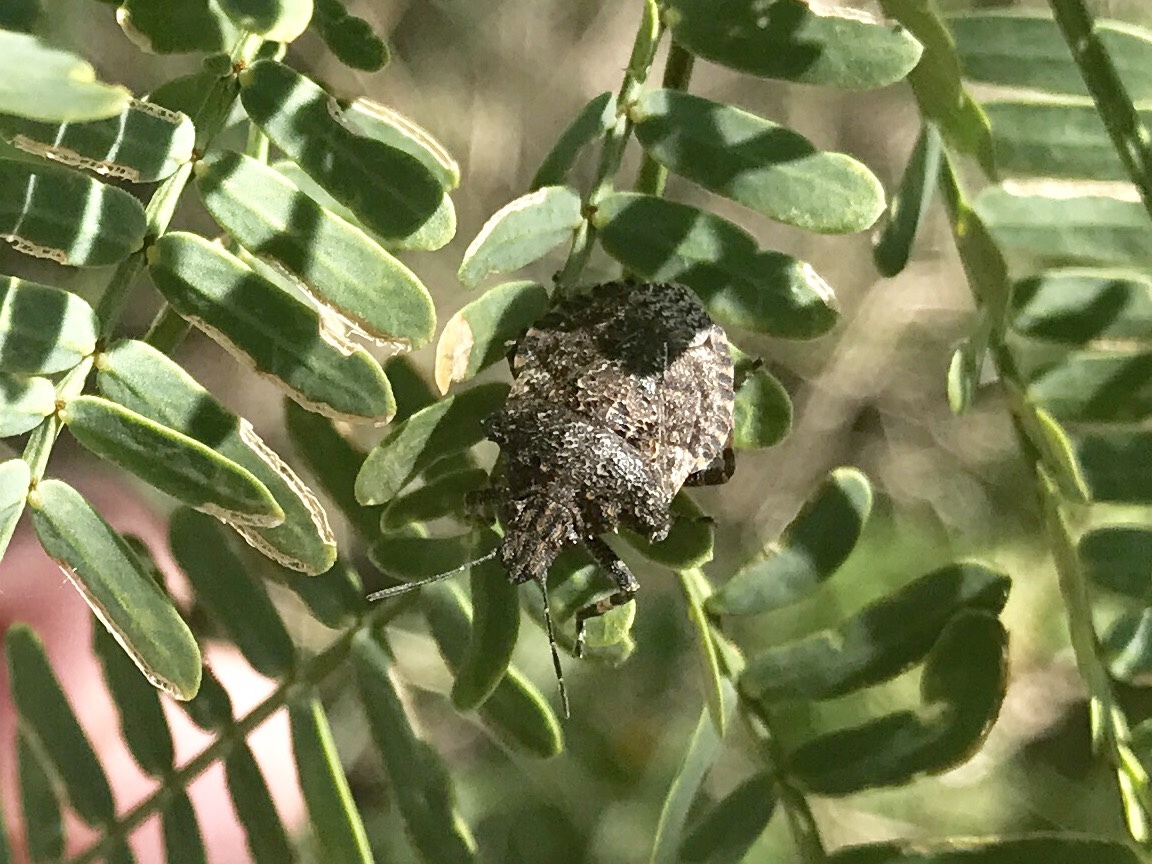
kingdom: Animalia
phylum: Arthropoda
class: Insecta
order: Hemiptera
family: Pentatomidae
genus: Brochymena
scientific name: Brochymena parva
